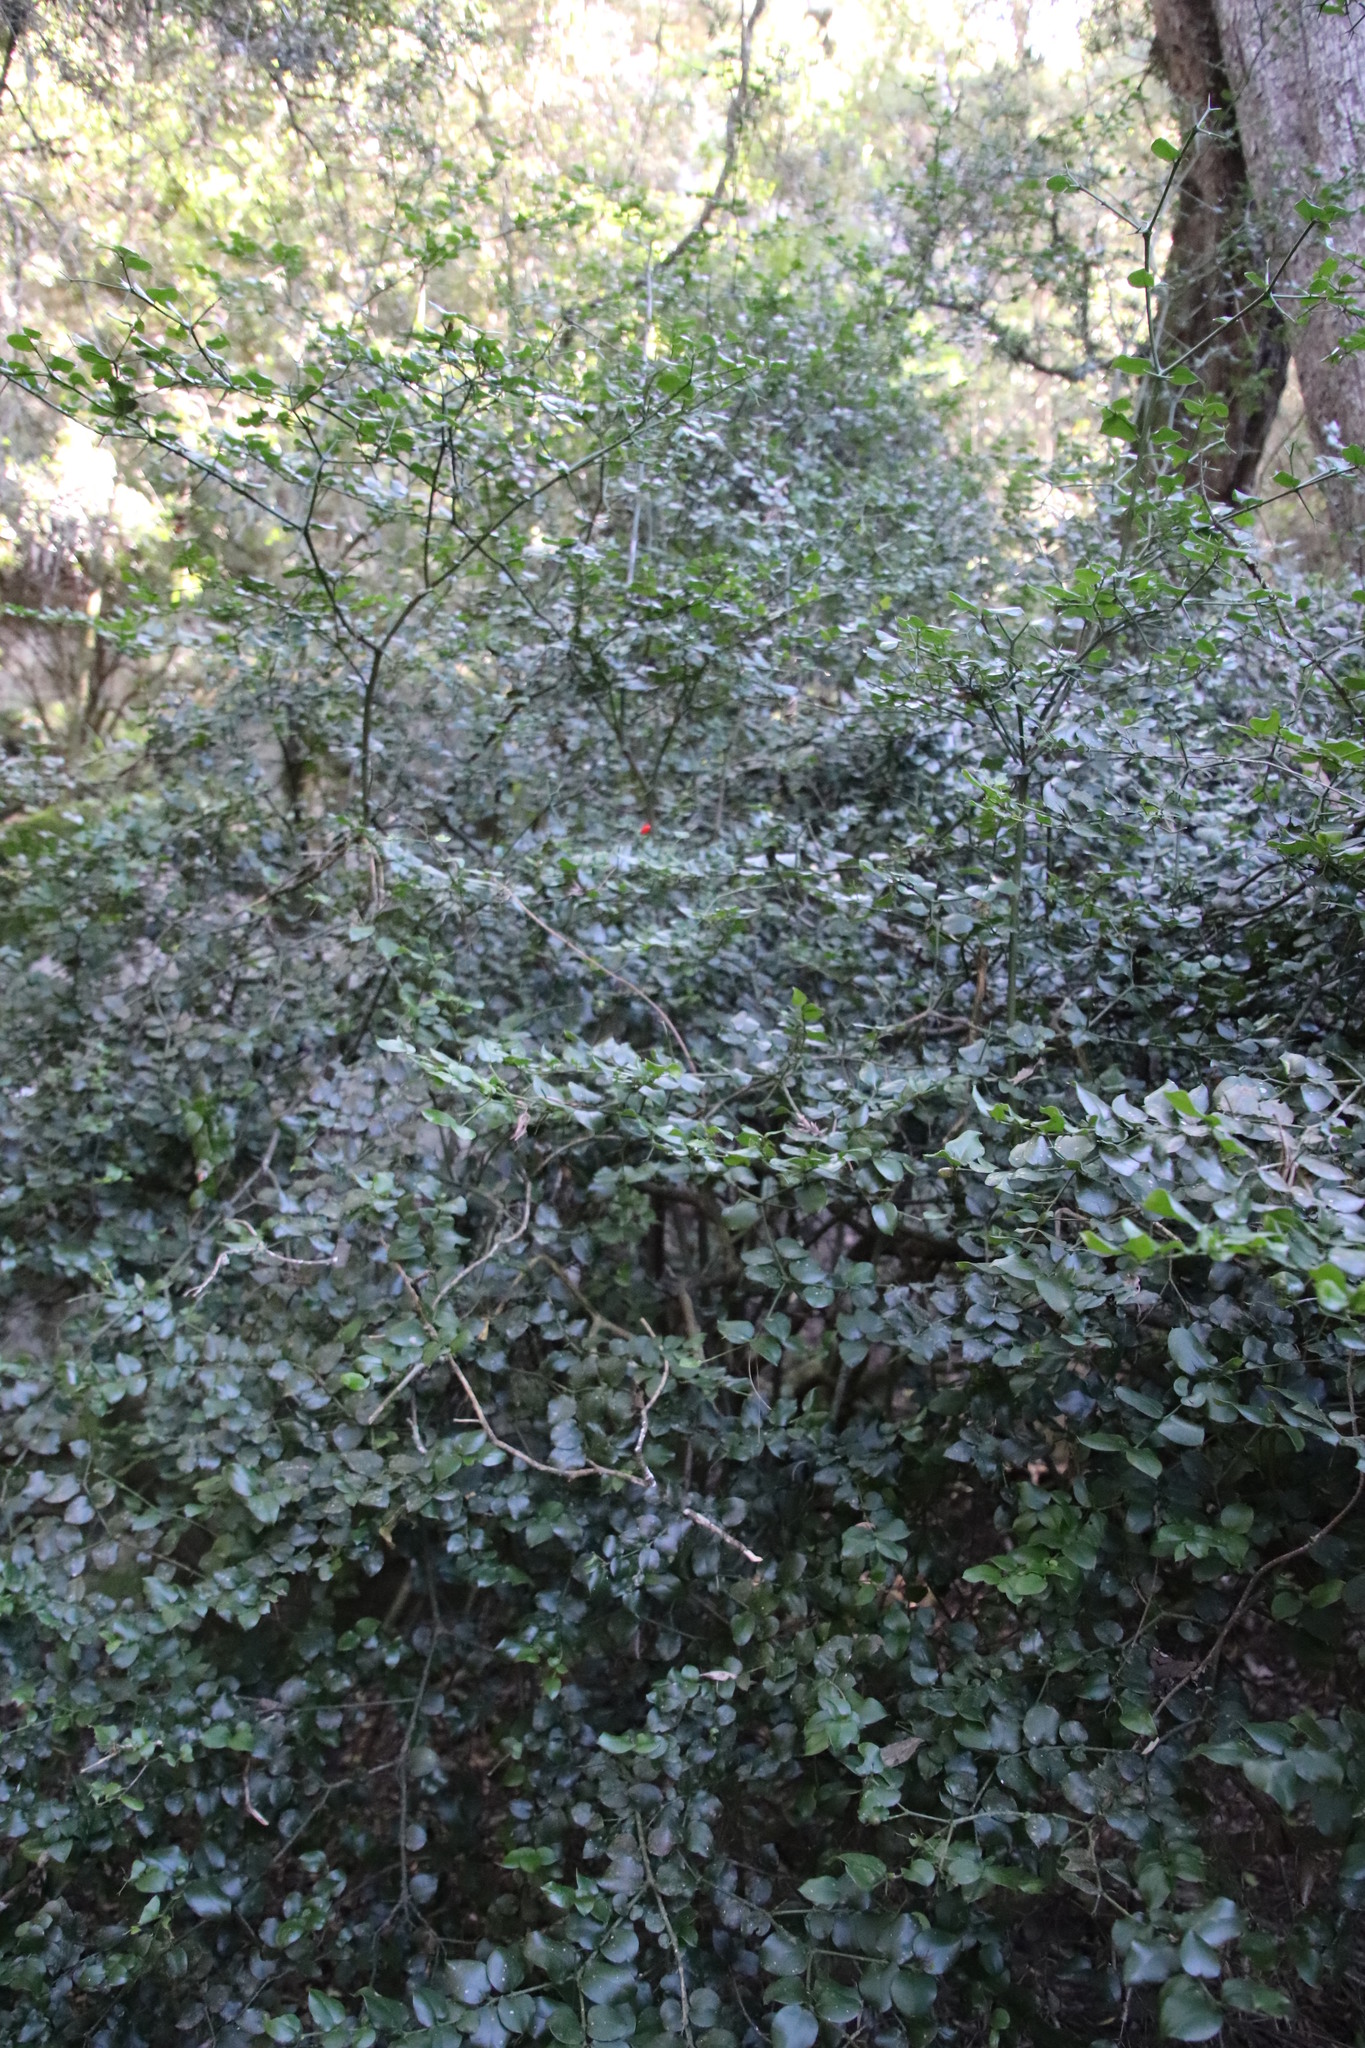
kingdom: Plantae
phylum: Tracheophyta
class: Magnoliopsida
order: Gentianales
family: Apocynaceae
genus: Carissa
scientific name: Carissa bispinosa
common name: Forest num-num
